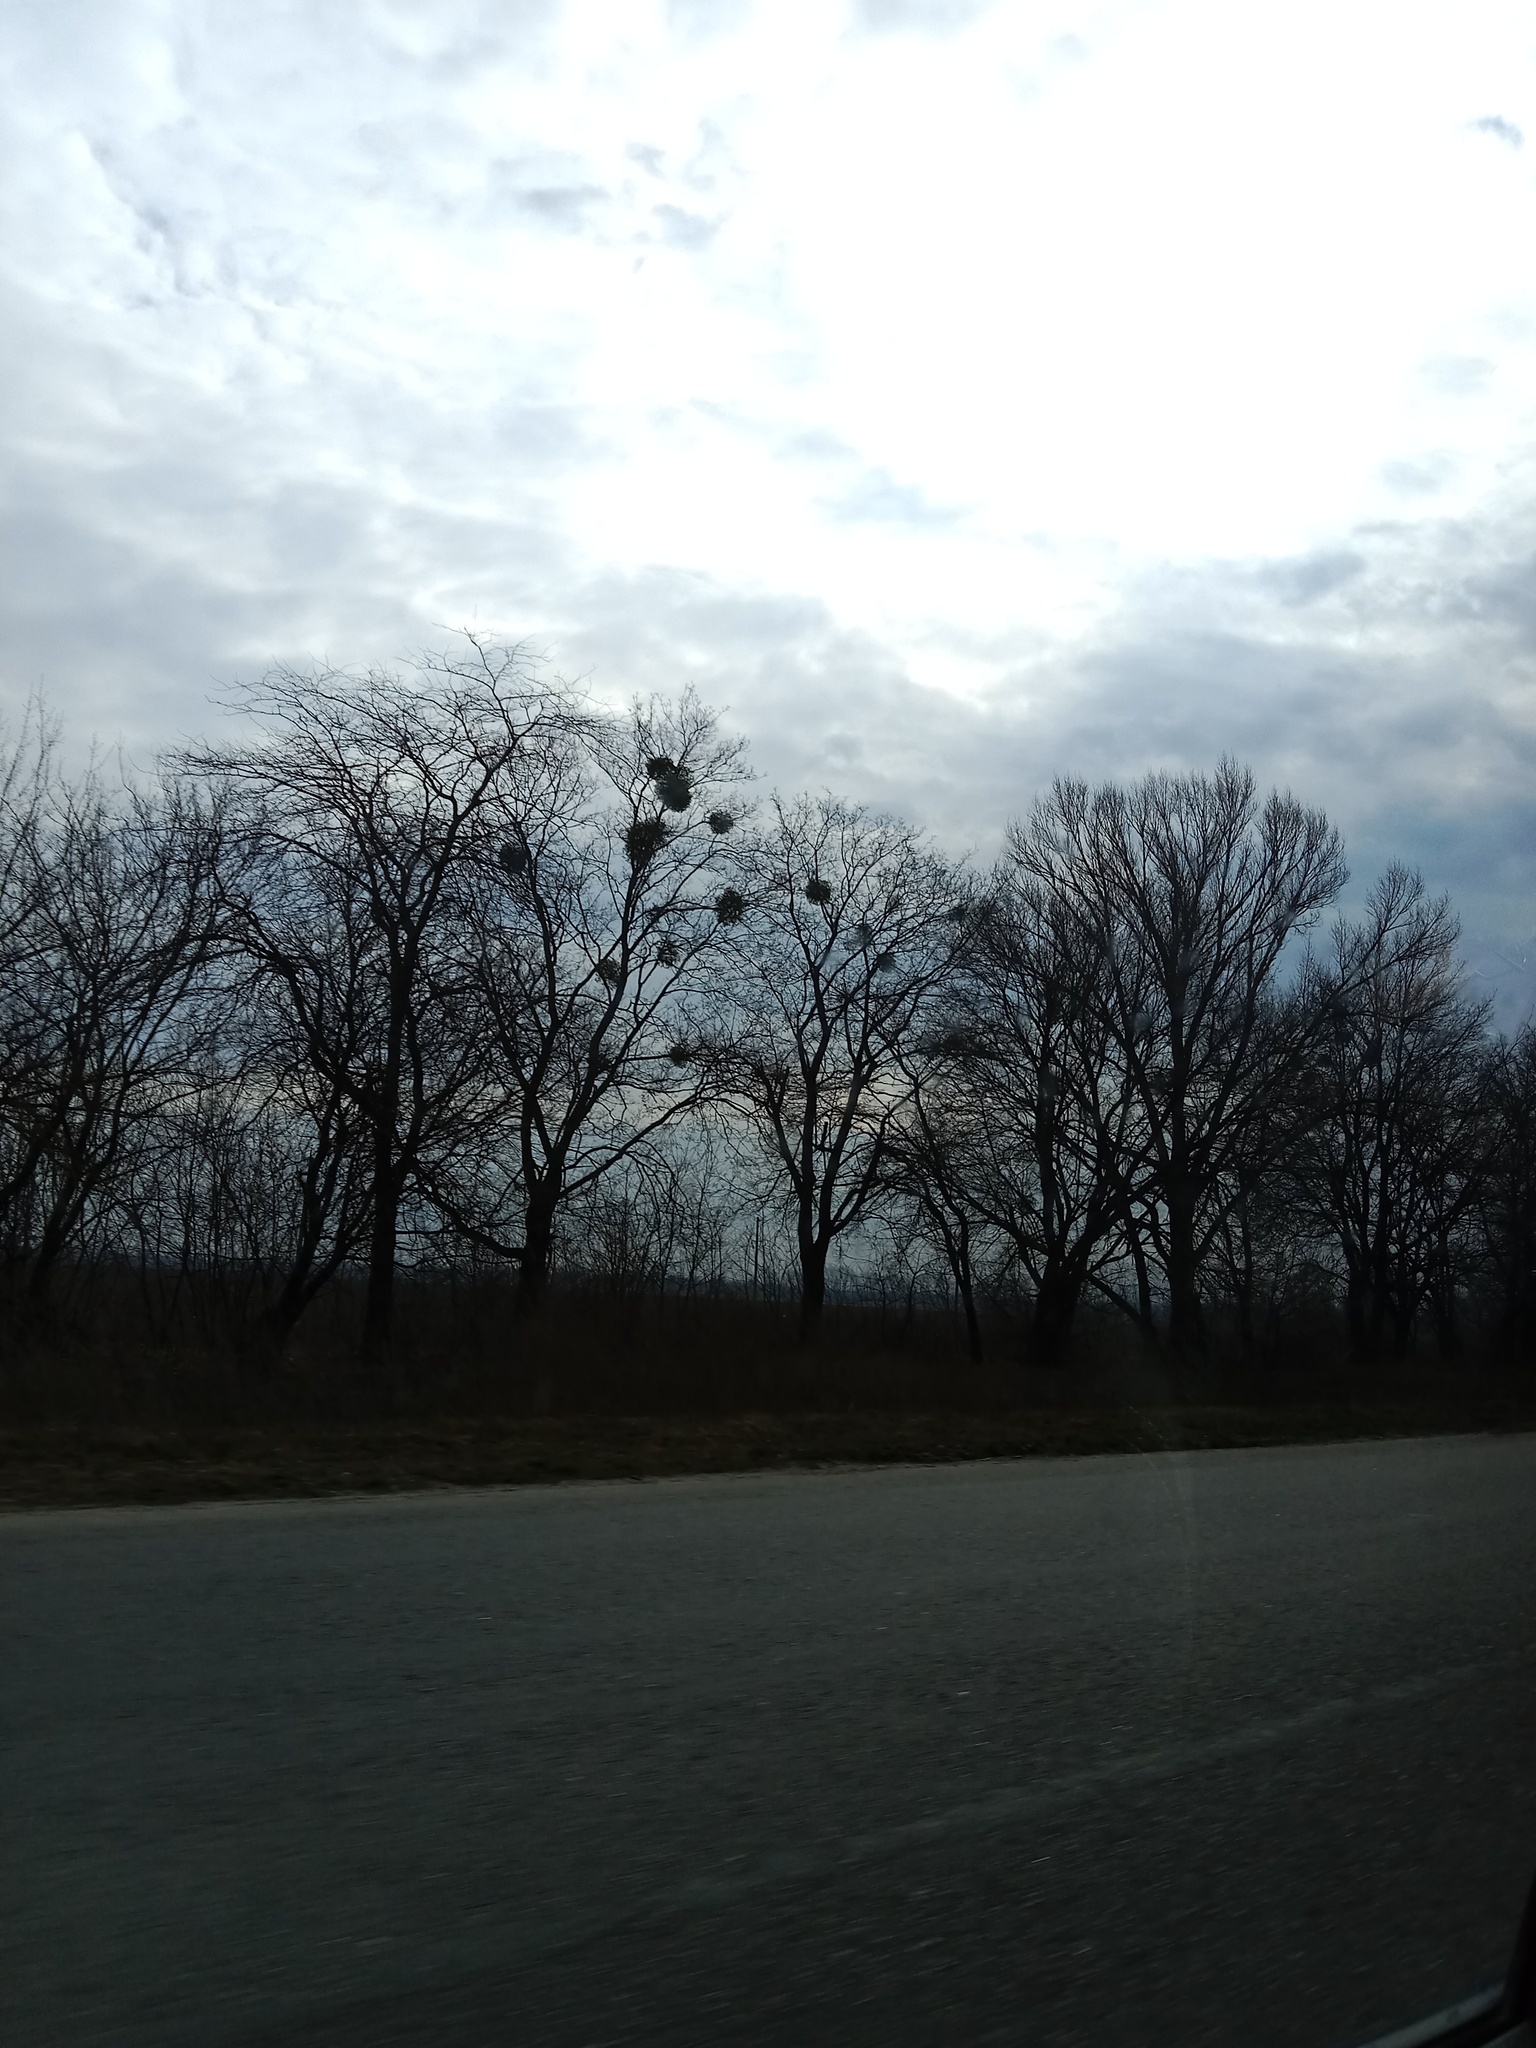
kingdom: Plantae
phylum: Tracheophyta
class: Magnoliopsida
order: Santalales
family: Viscaceae
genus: Viscum
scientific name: Viscum album
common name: Mistletoe
